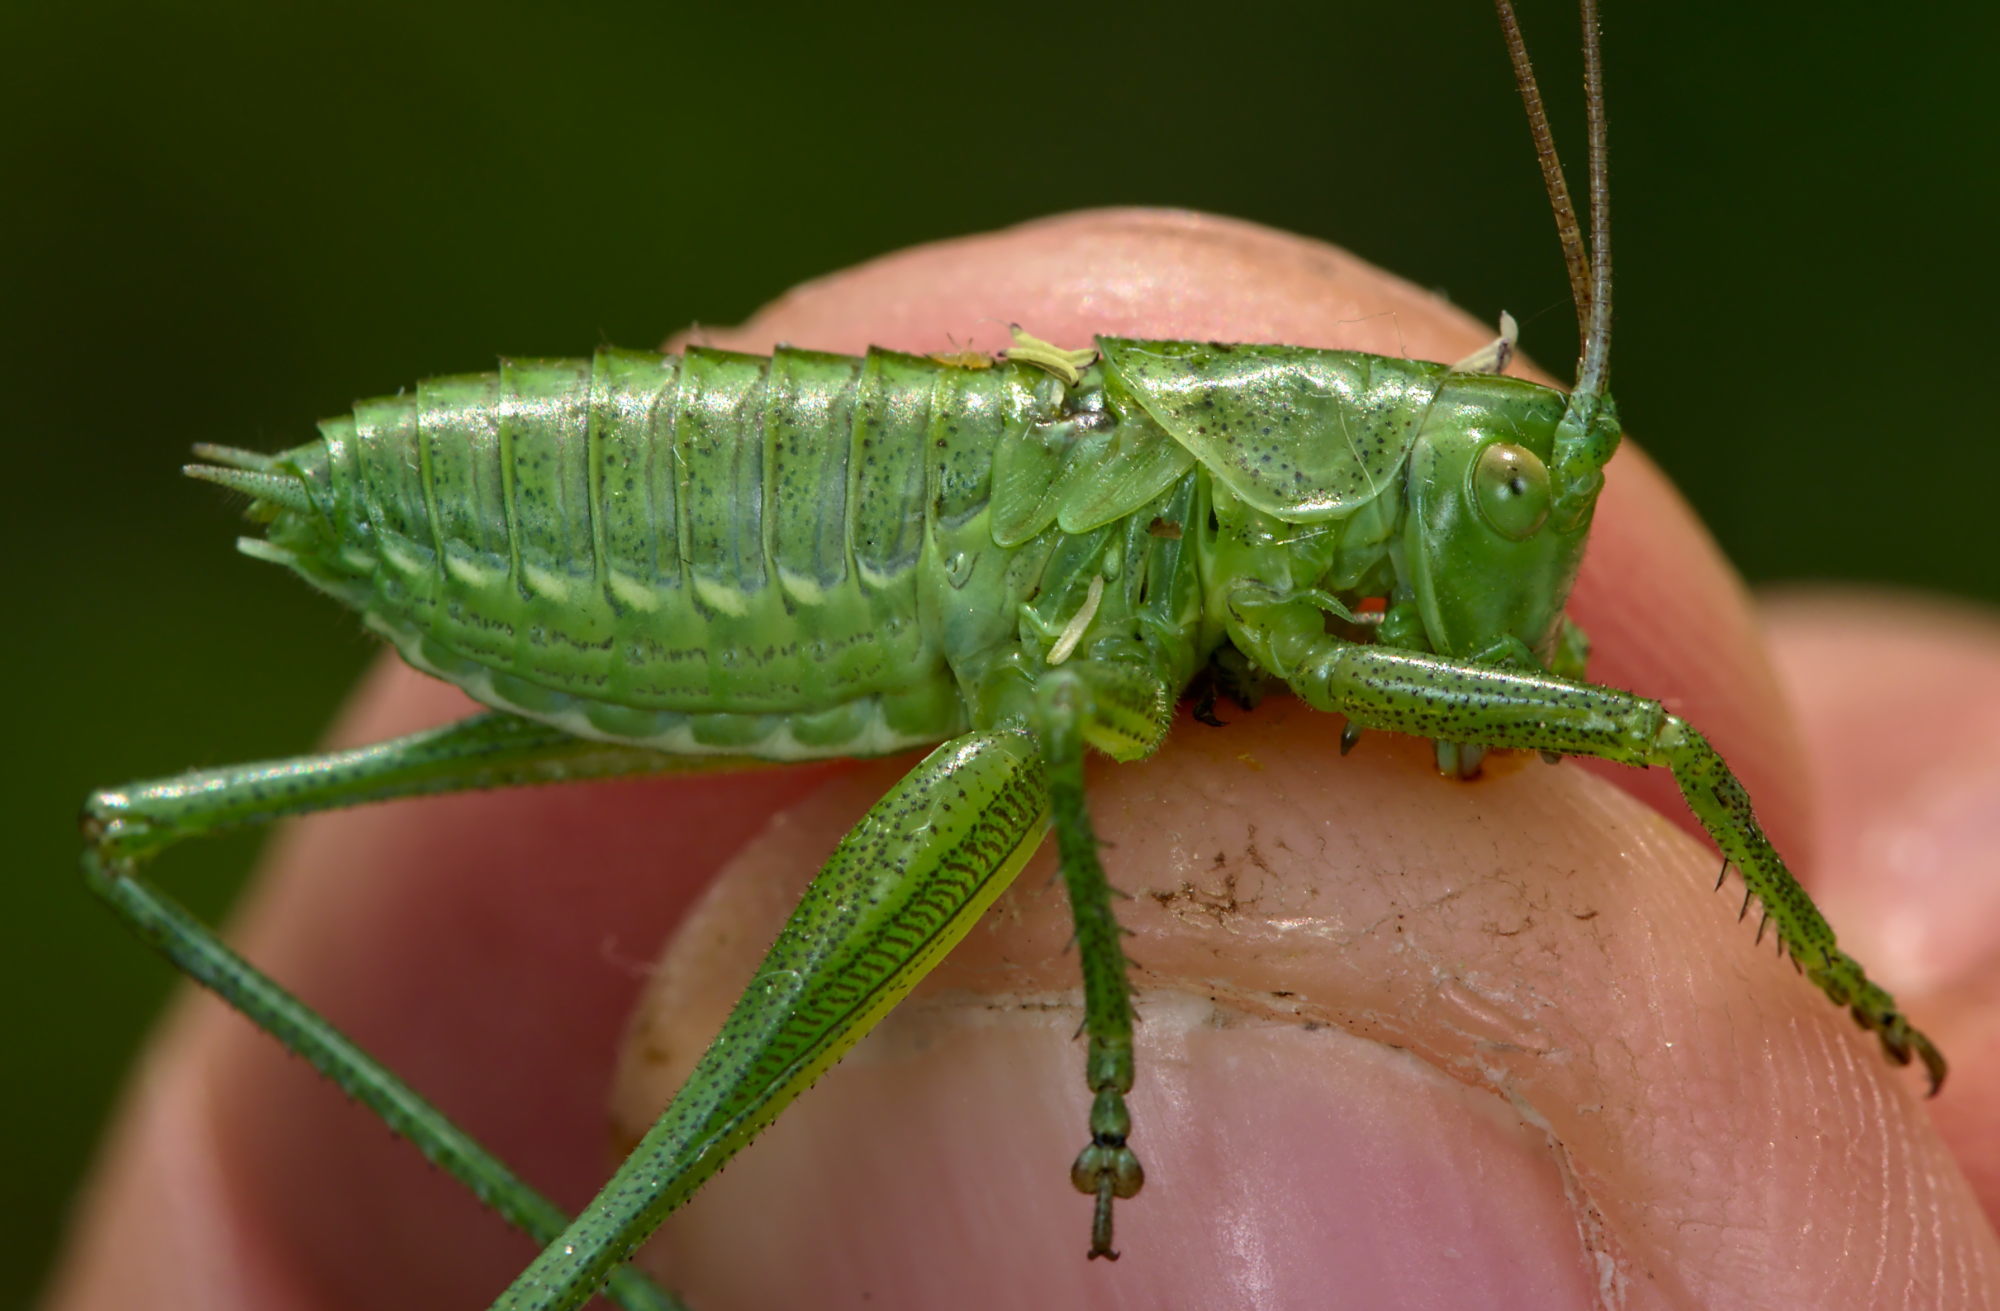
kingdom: Animalia
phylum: Arthropoda
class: Insecta
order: Orthoptera
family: Tettigoniidae
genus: Tettigonia
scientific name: Tettigonia viridissima
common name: Great green bush-cricket
